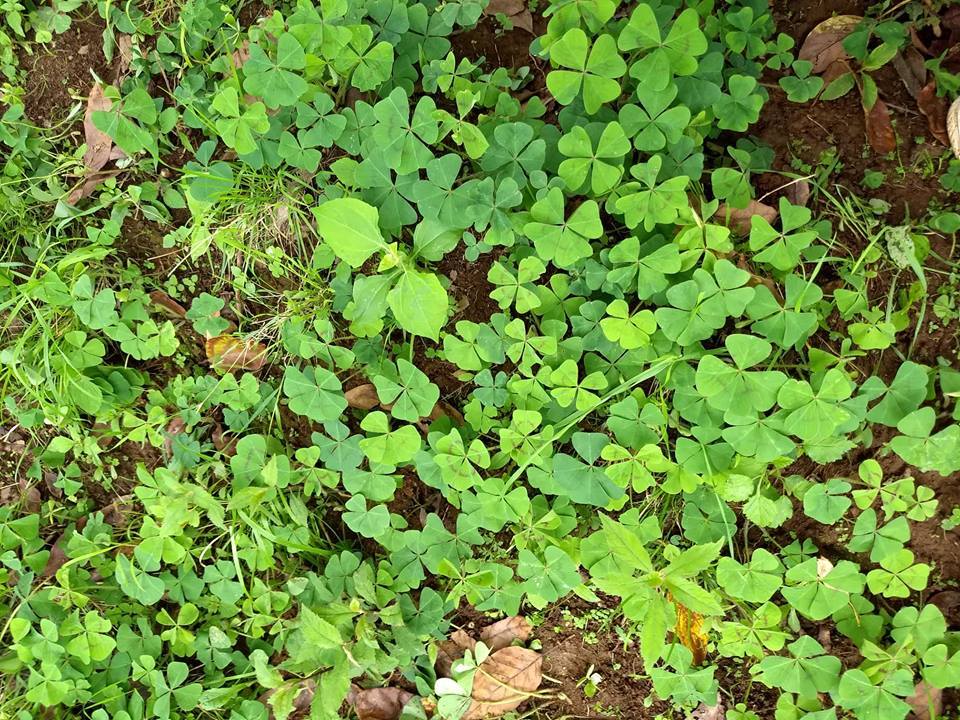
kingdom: Plantae
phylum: Tracheophyta
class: Magnoliopsida
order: Oxalidales
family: Oxalidaceae
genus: Oxalis
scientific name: Oxalis tetraphylla
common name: Four-leaved pink-sorrel
